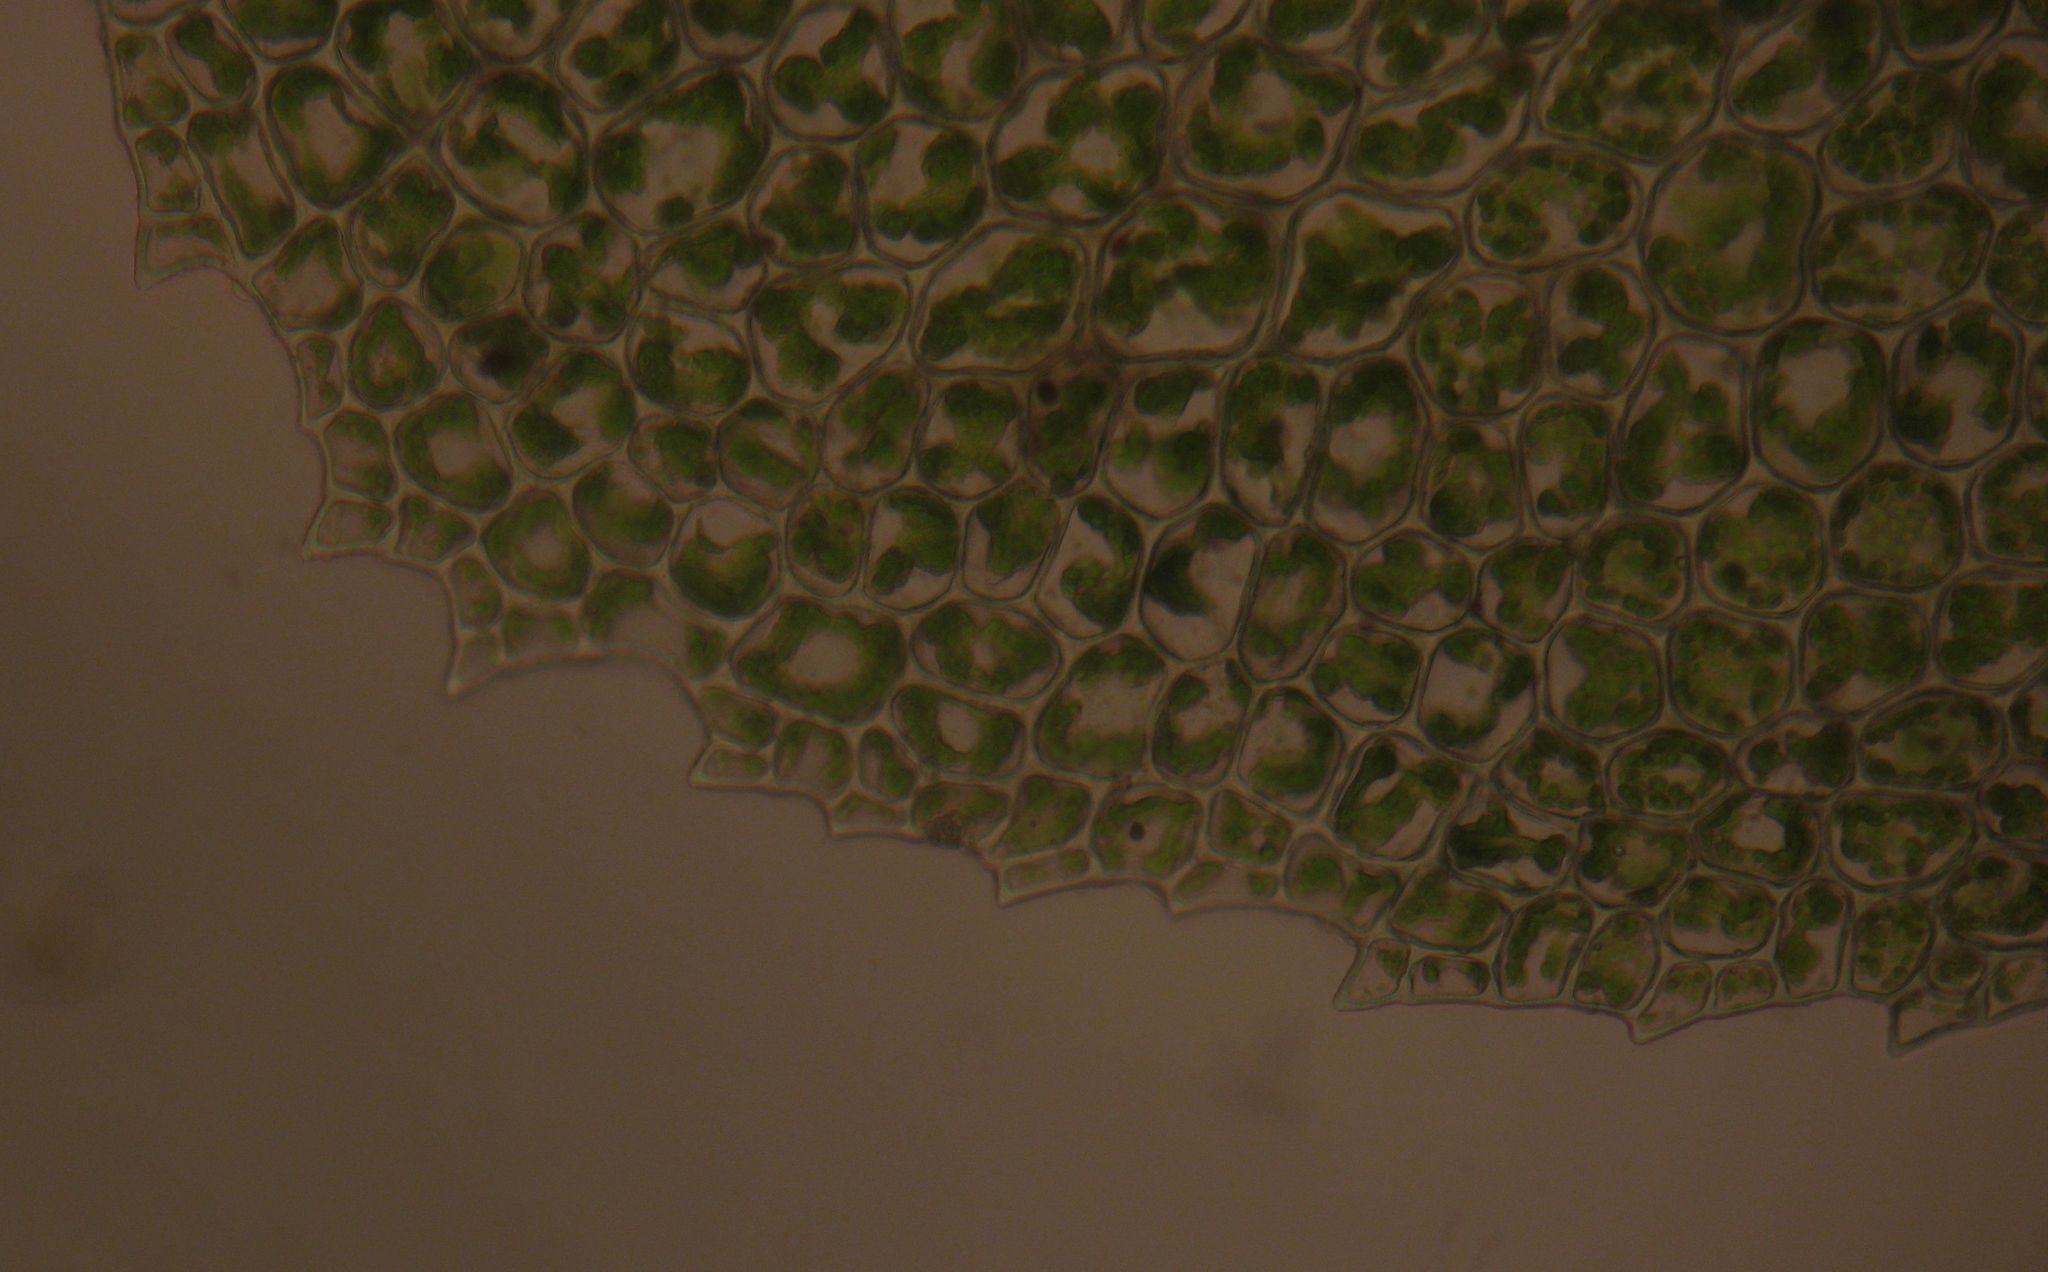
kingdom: Plantae
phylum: Bryophyta
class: Bryopsida
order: Hookeriales
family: Daltoniaceae
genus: Achrophyllum
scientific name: Achrophyllum dentatum
